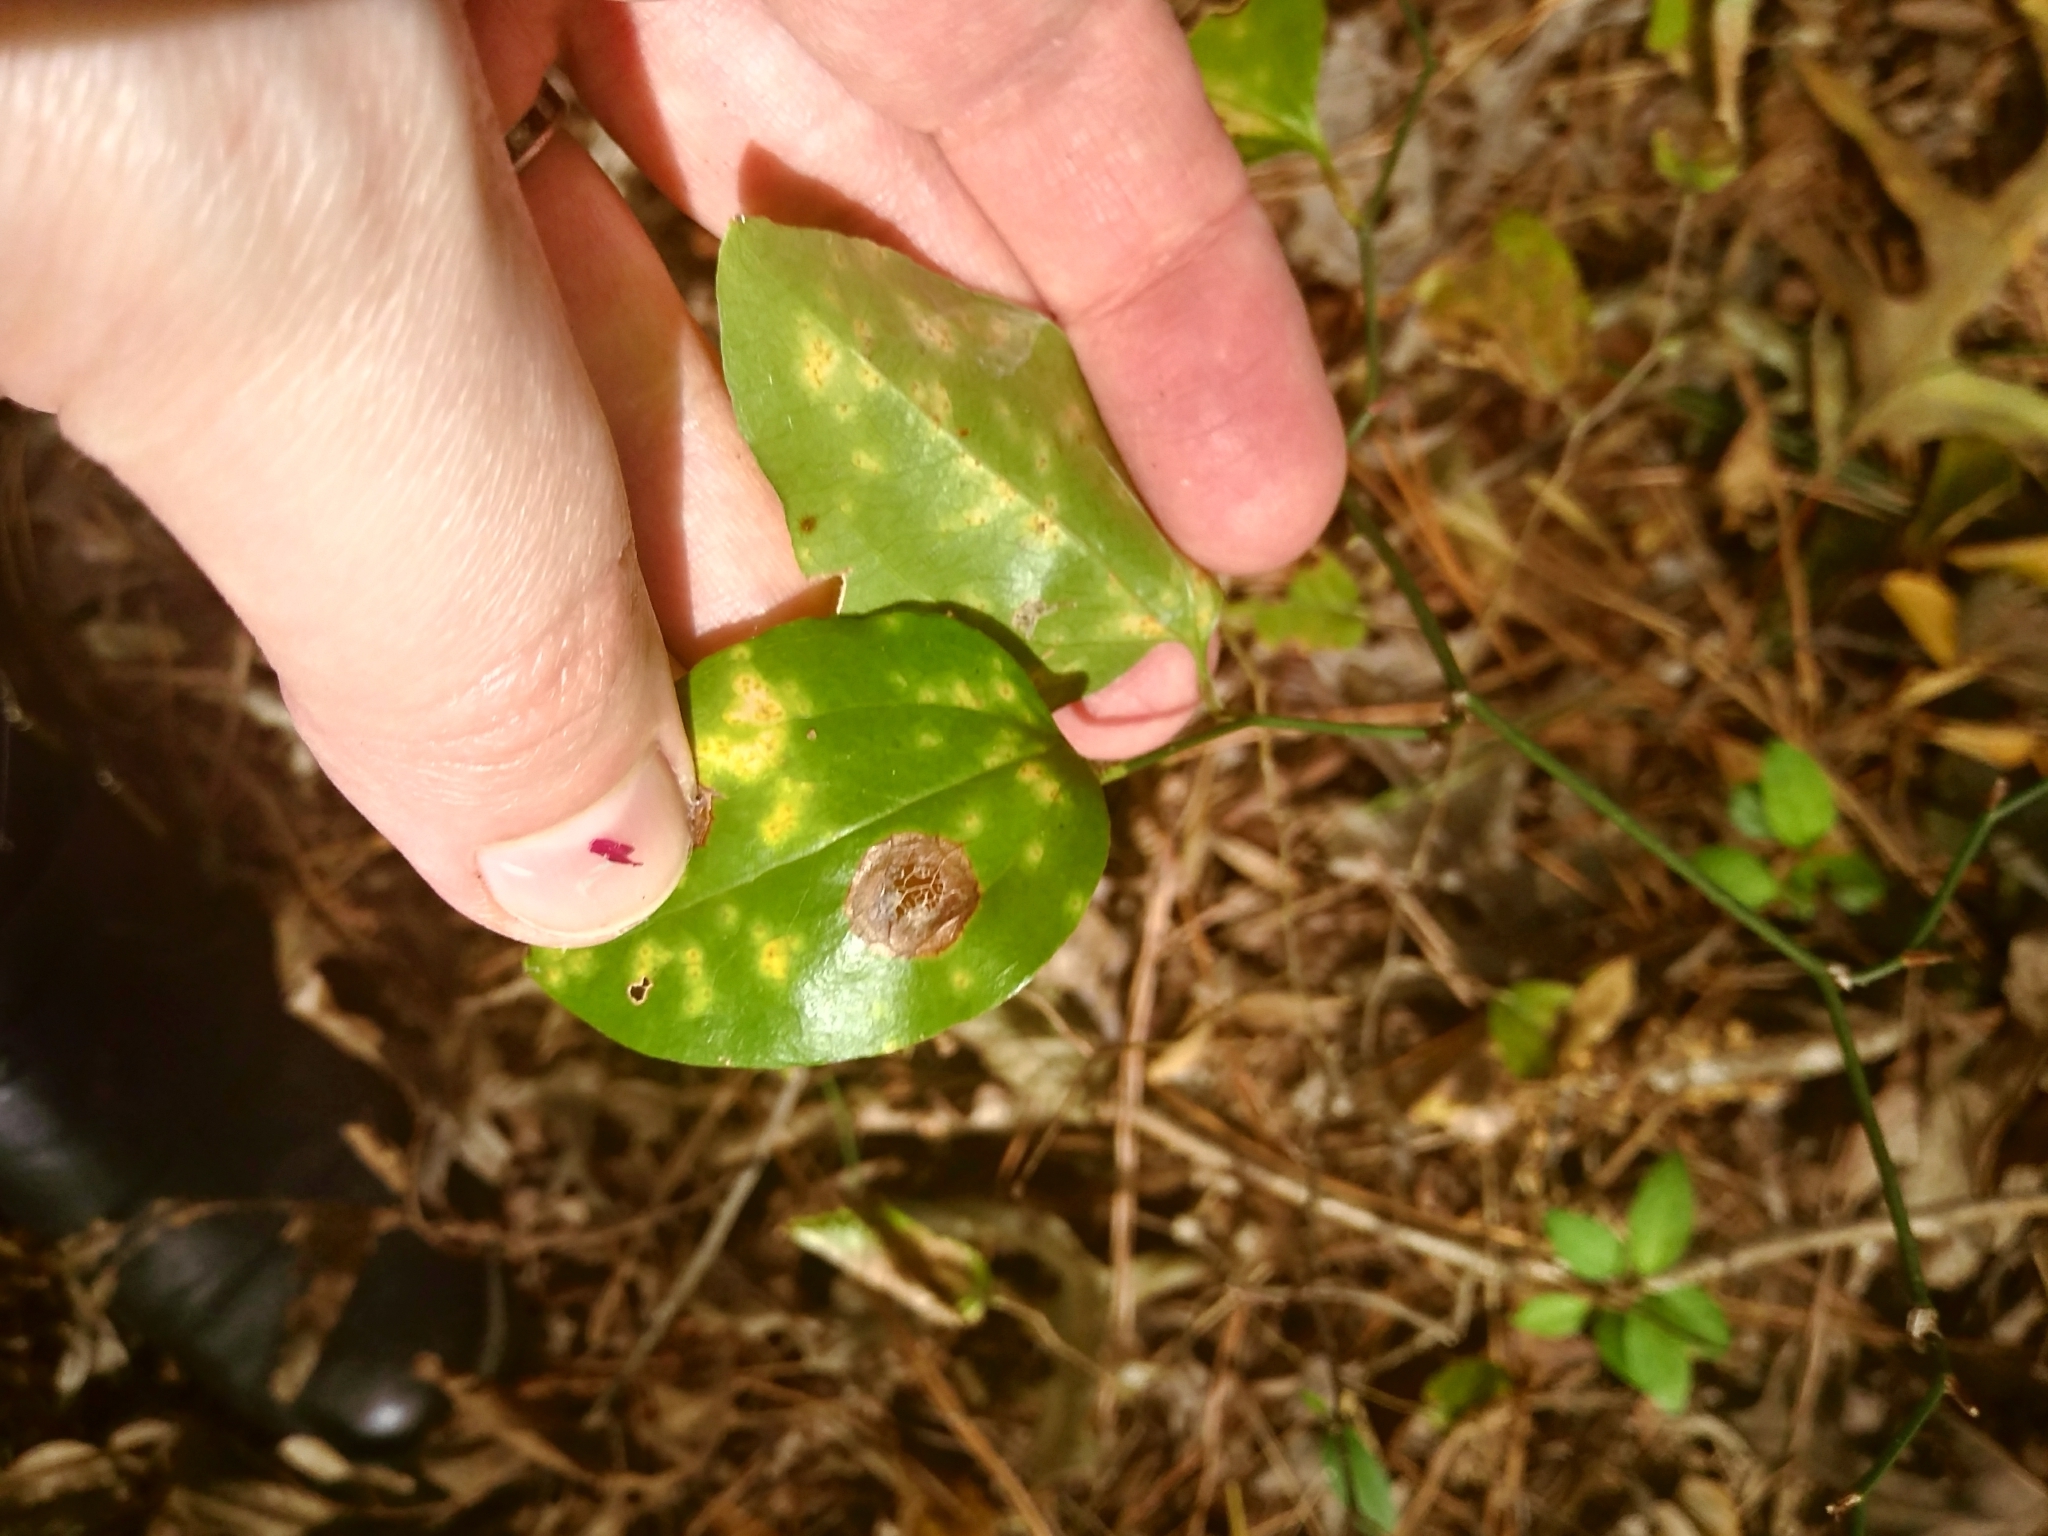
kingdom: Plantae
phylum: Tracheophyta
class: Liliopsida
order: Liliales
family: Smilacaceae
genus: Smilax
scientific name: Smilax rotundifolia
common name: Bullbriar
